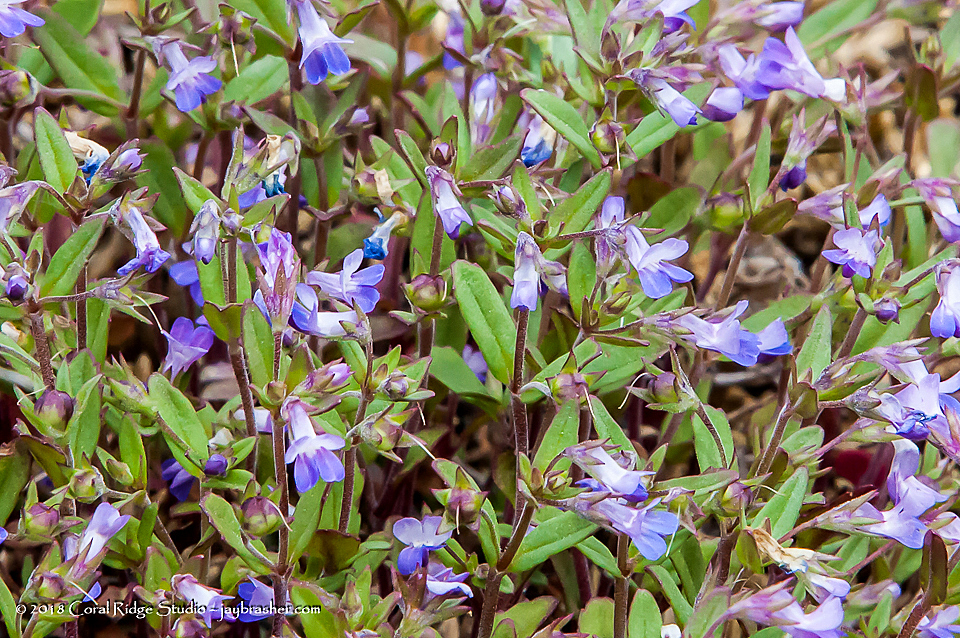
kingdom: Plantae
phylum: Tracheophyta
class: Magnoliopsida
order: Lamiales
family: Plantaginaceae
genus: Collinsia
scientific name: Collinsia parviflora
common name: Blue-lips
